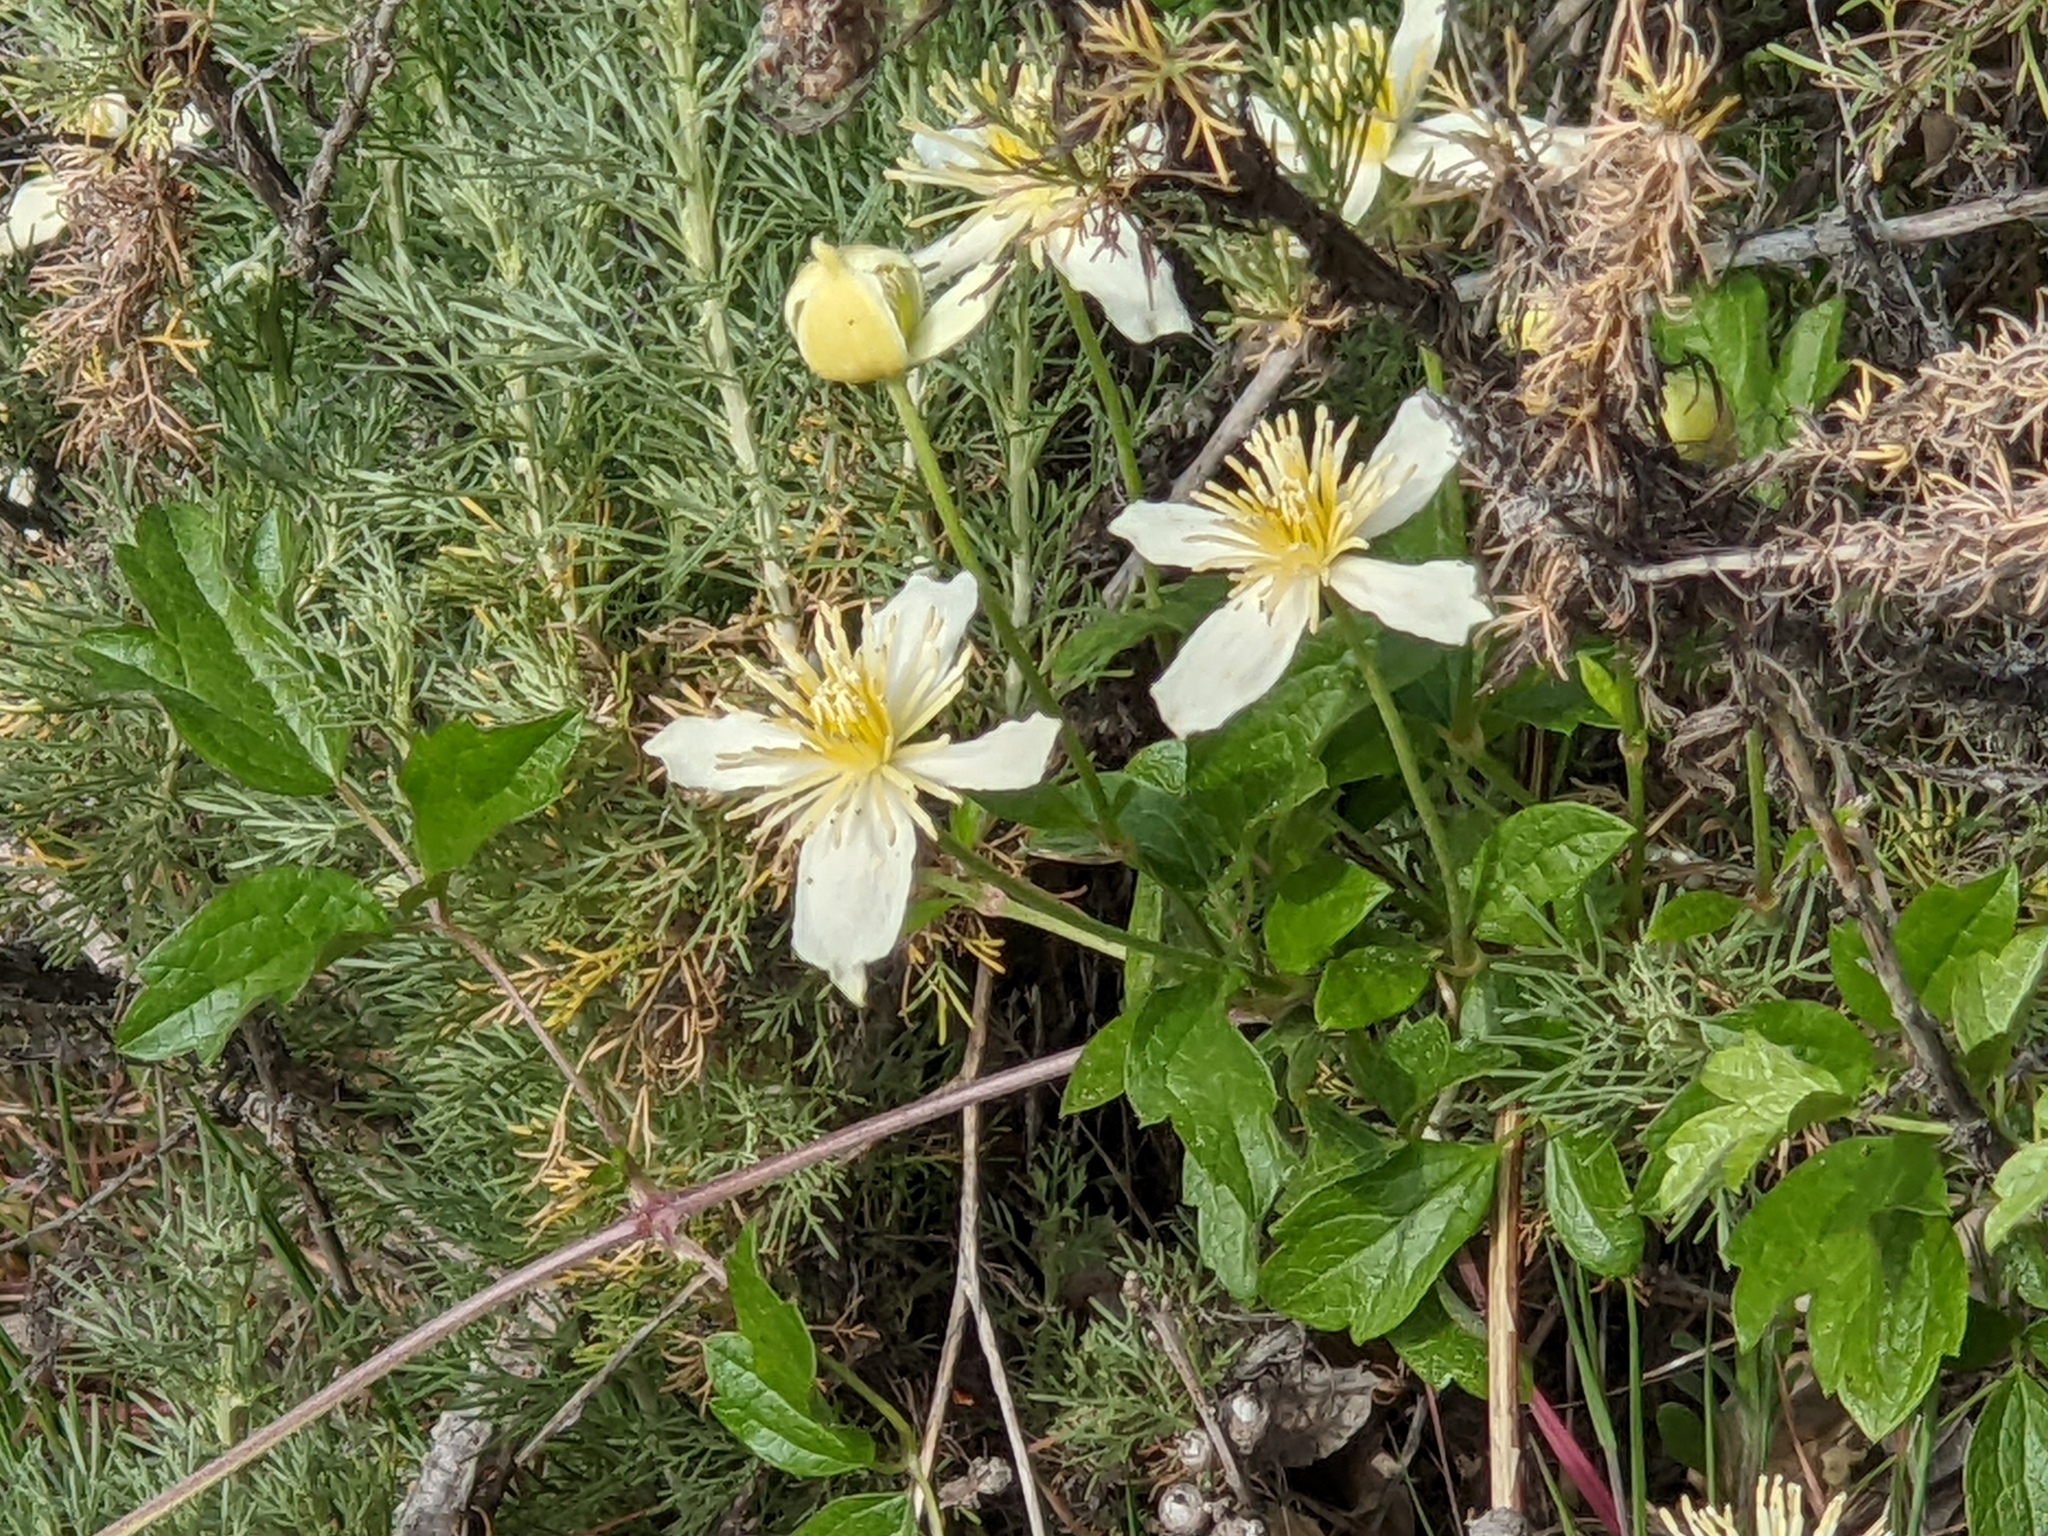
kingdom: Plantae
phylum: Tracheophyta
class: Magnoliopsida
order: Ranunculales
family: Ranunculaceae
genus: Clematis
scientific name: Clematis lasiantha
